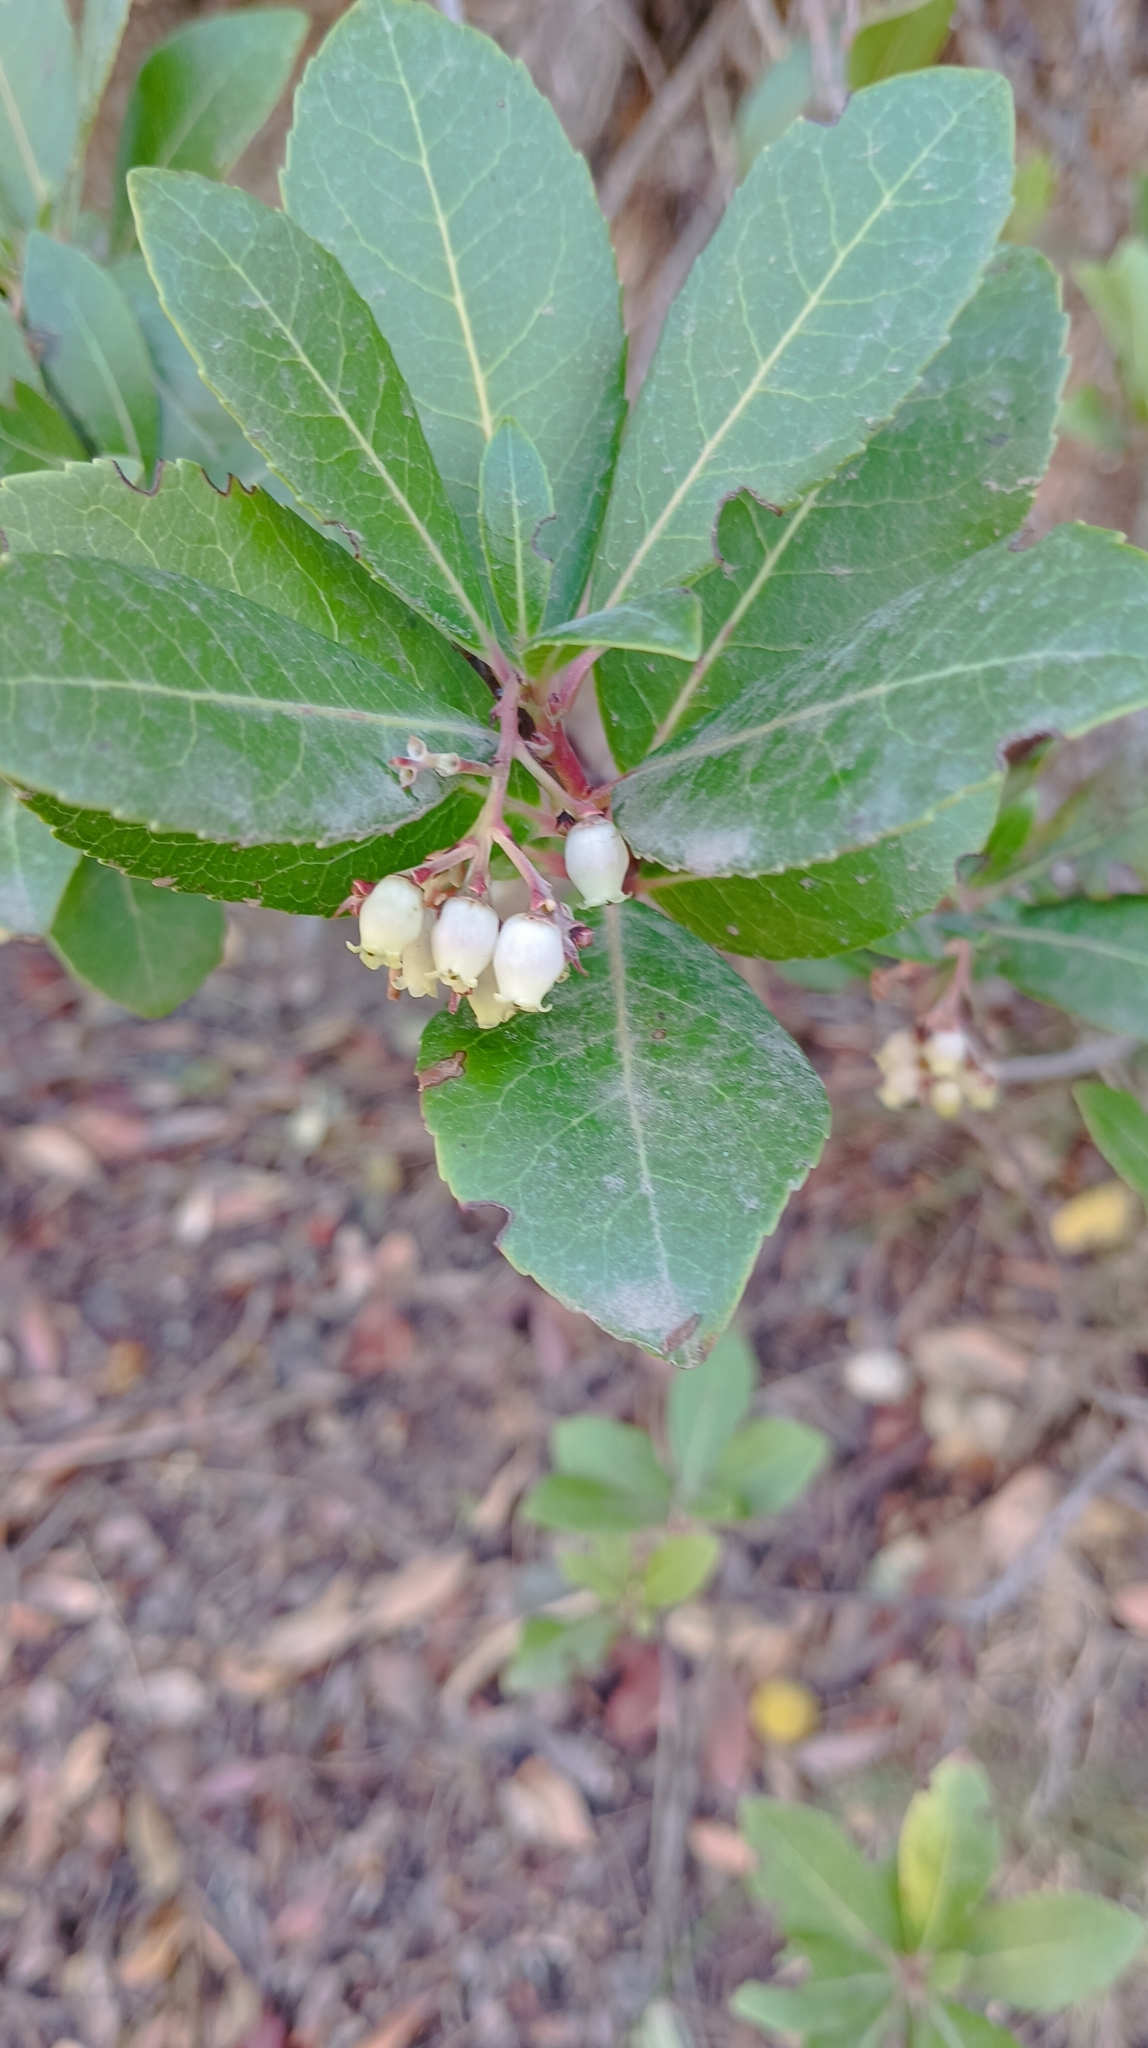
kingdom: Plantae
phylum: Tracheophyta
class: Magnoliopsida
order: Ericales
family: Ericaceae
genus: Arbutus
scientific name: Arbutus unedo
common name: Strawberry-tree
